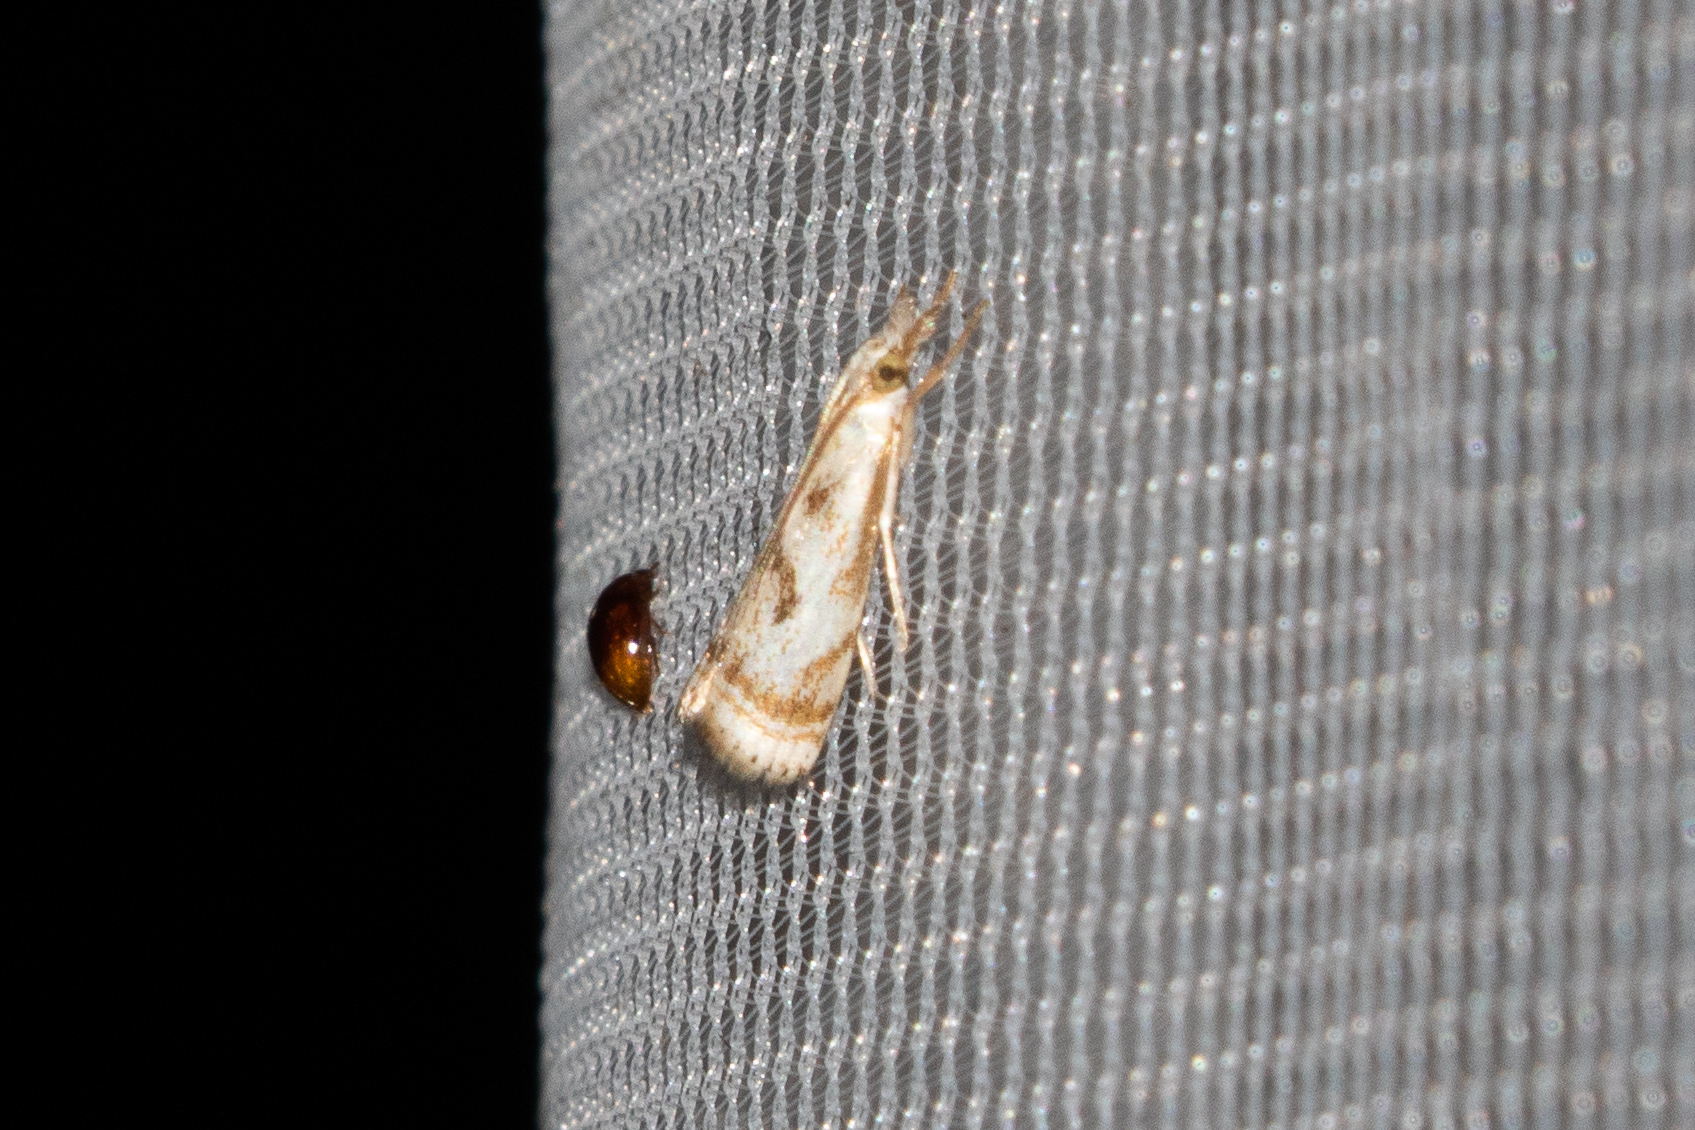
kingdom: Animalia
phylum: Arthropoda
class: Insecta
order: Lepidoptera
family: Crambidae
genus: Microcrambus
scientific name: Microcrambus elegans
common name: Elegant grass-veneer
